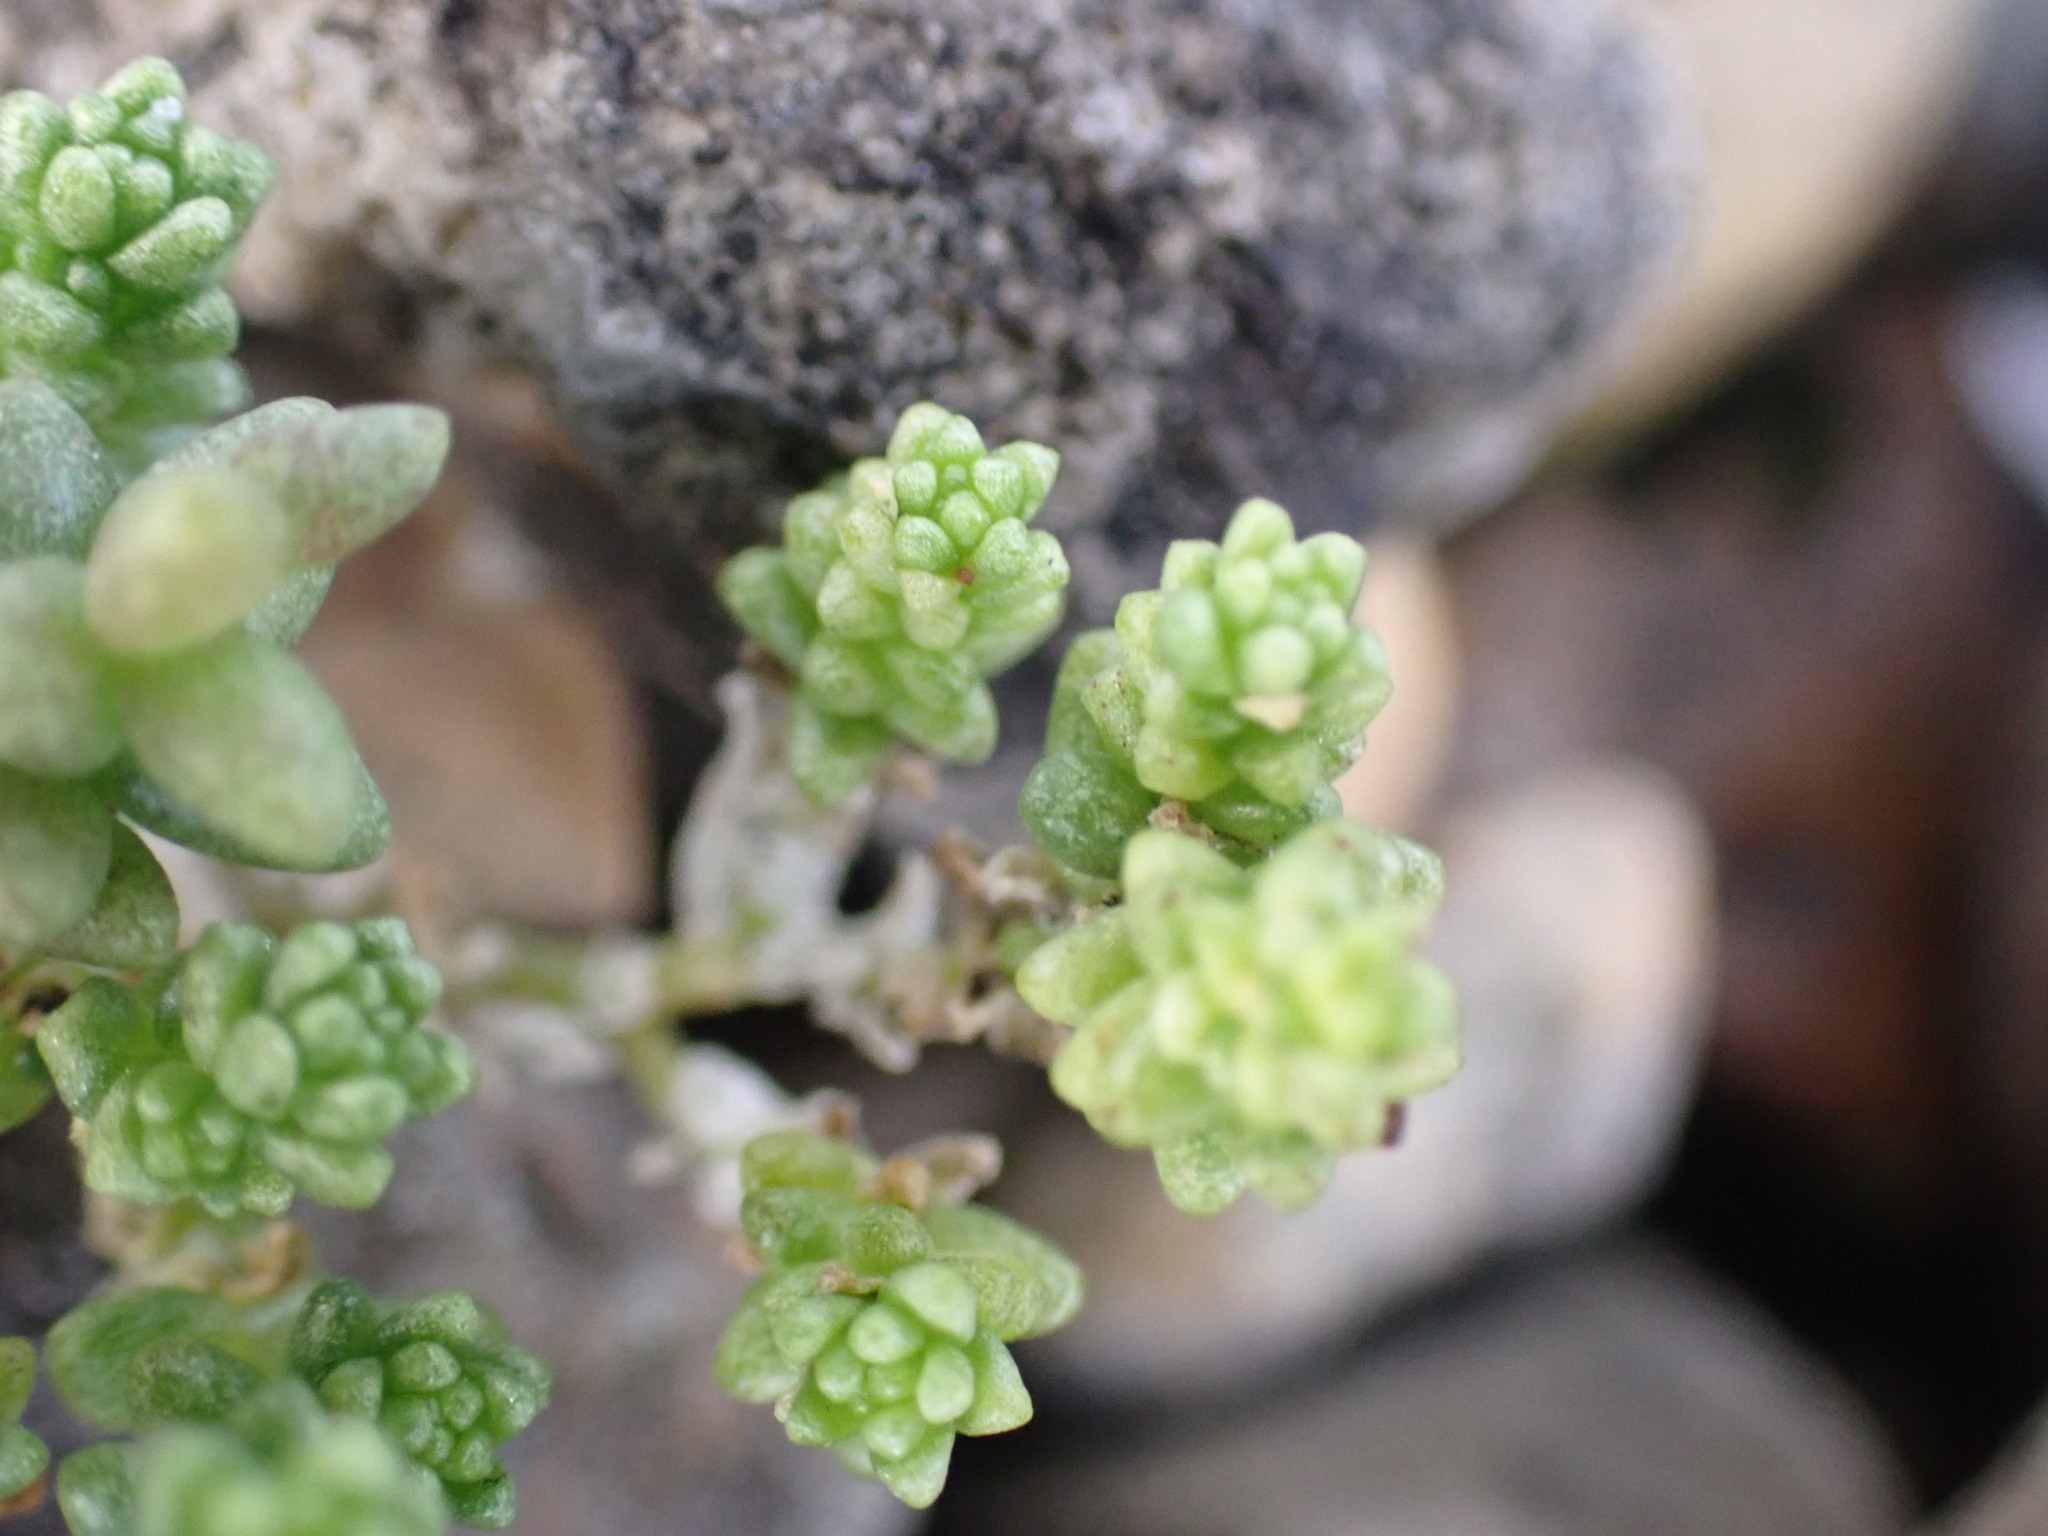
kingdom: Plantae
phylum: Tracheophyta
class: Magnoliopsida
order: Saxifragales
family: Crassulaceae
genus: Sedum
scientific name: Sedum acre
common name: Biting stonecrop
